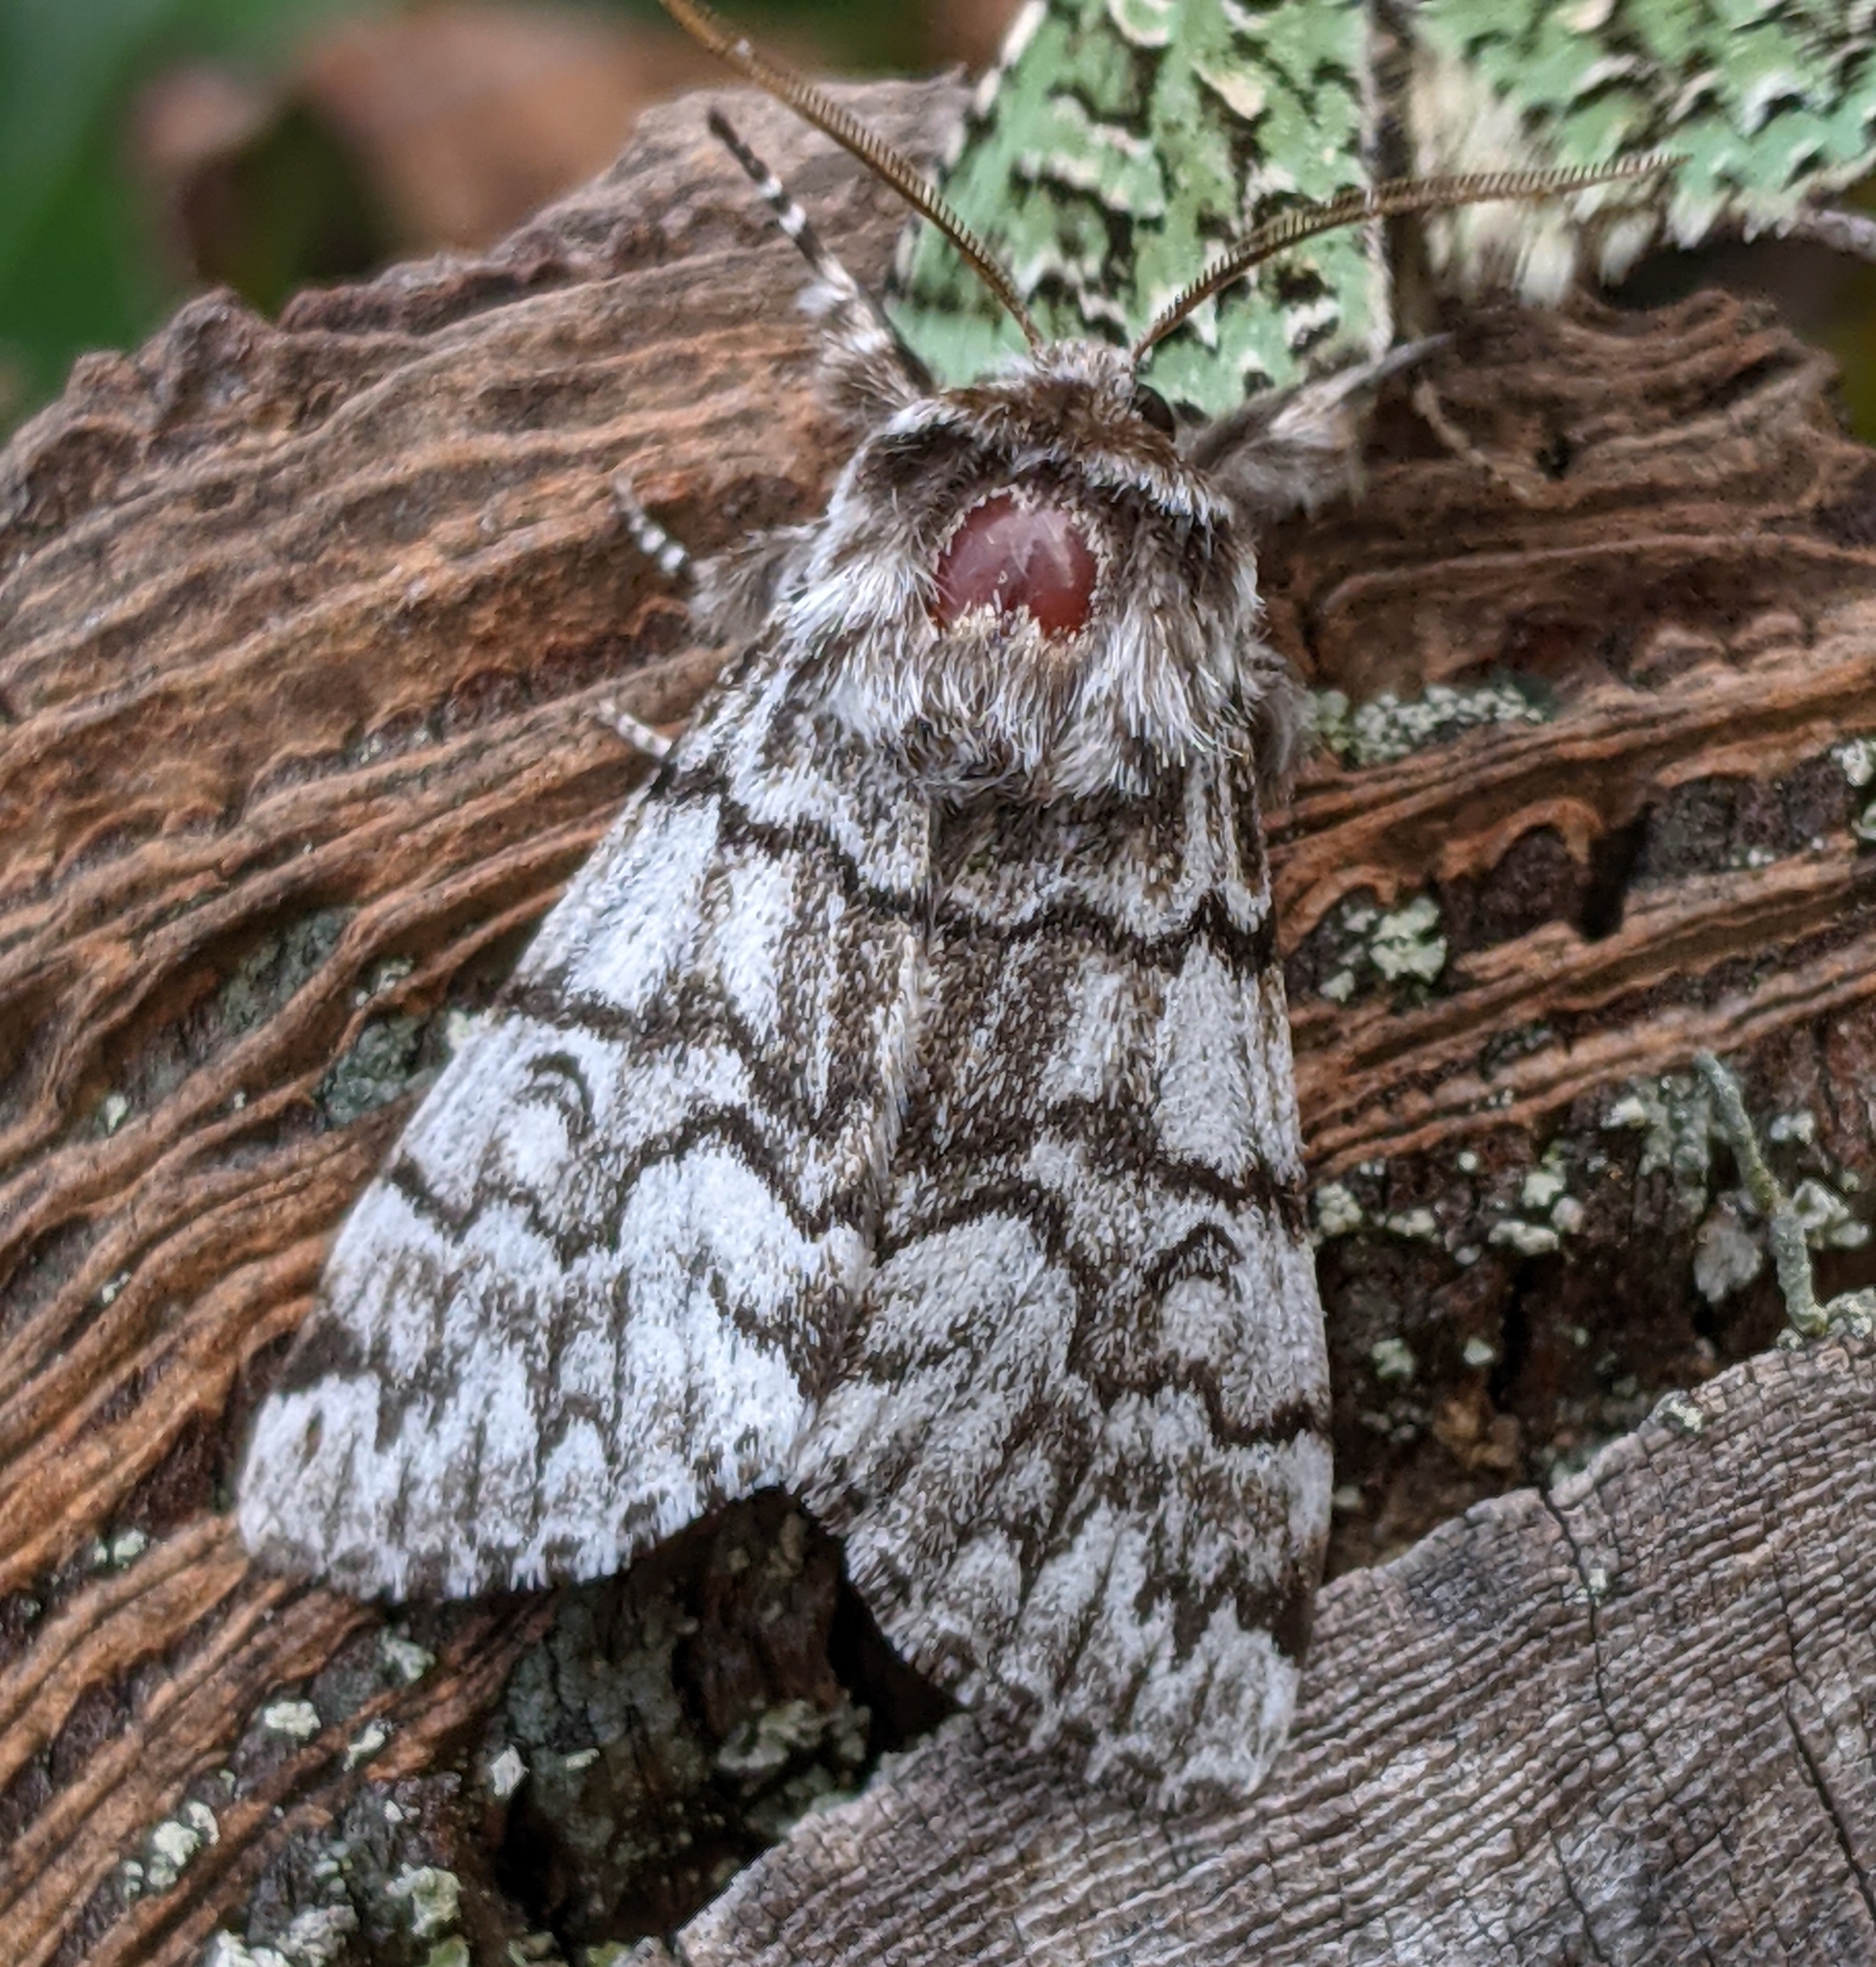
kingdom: Animalia
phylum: Arthropoda
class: Insecta
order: Lepidoptera
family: Noctuidae
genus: Panthea
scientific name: Panthea virginarius
